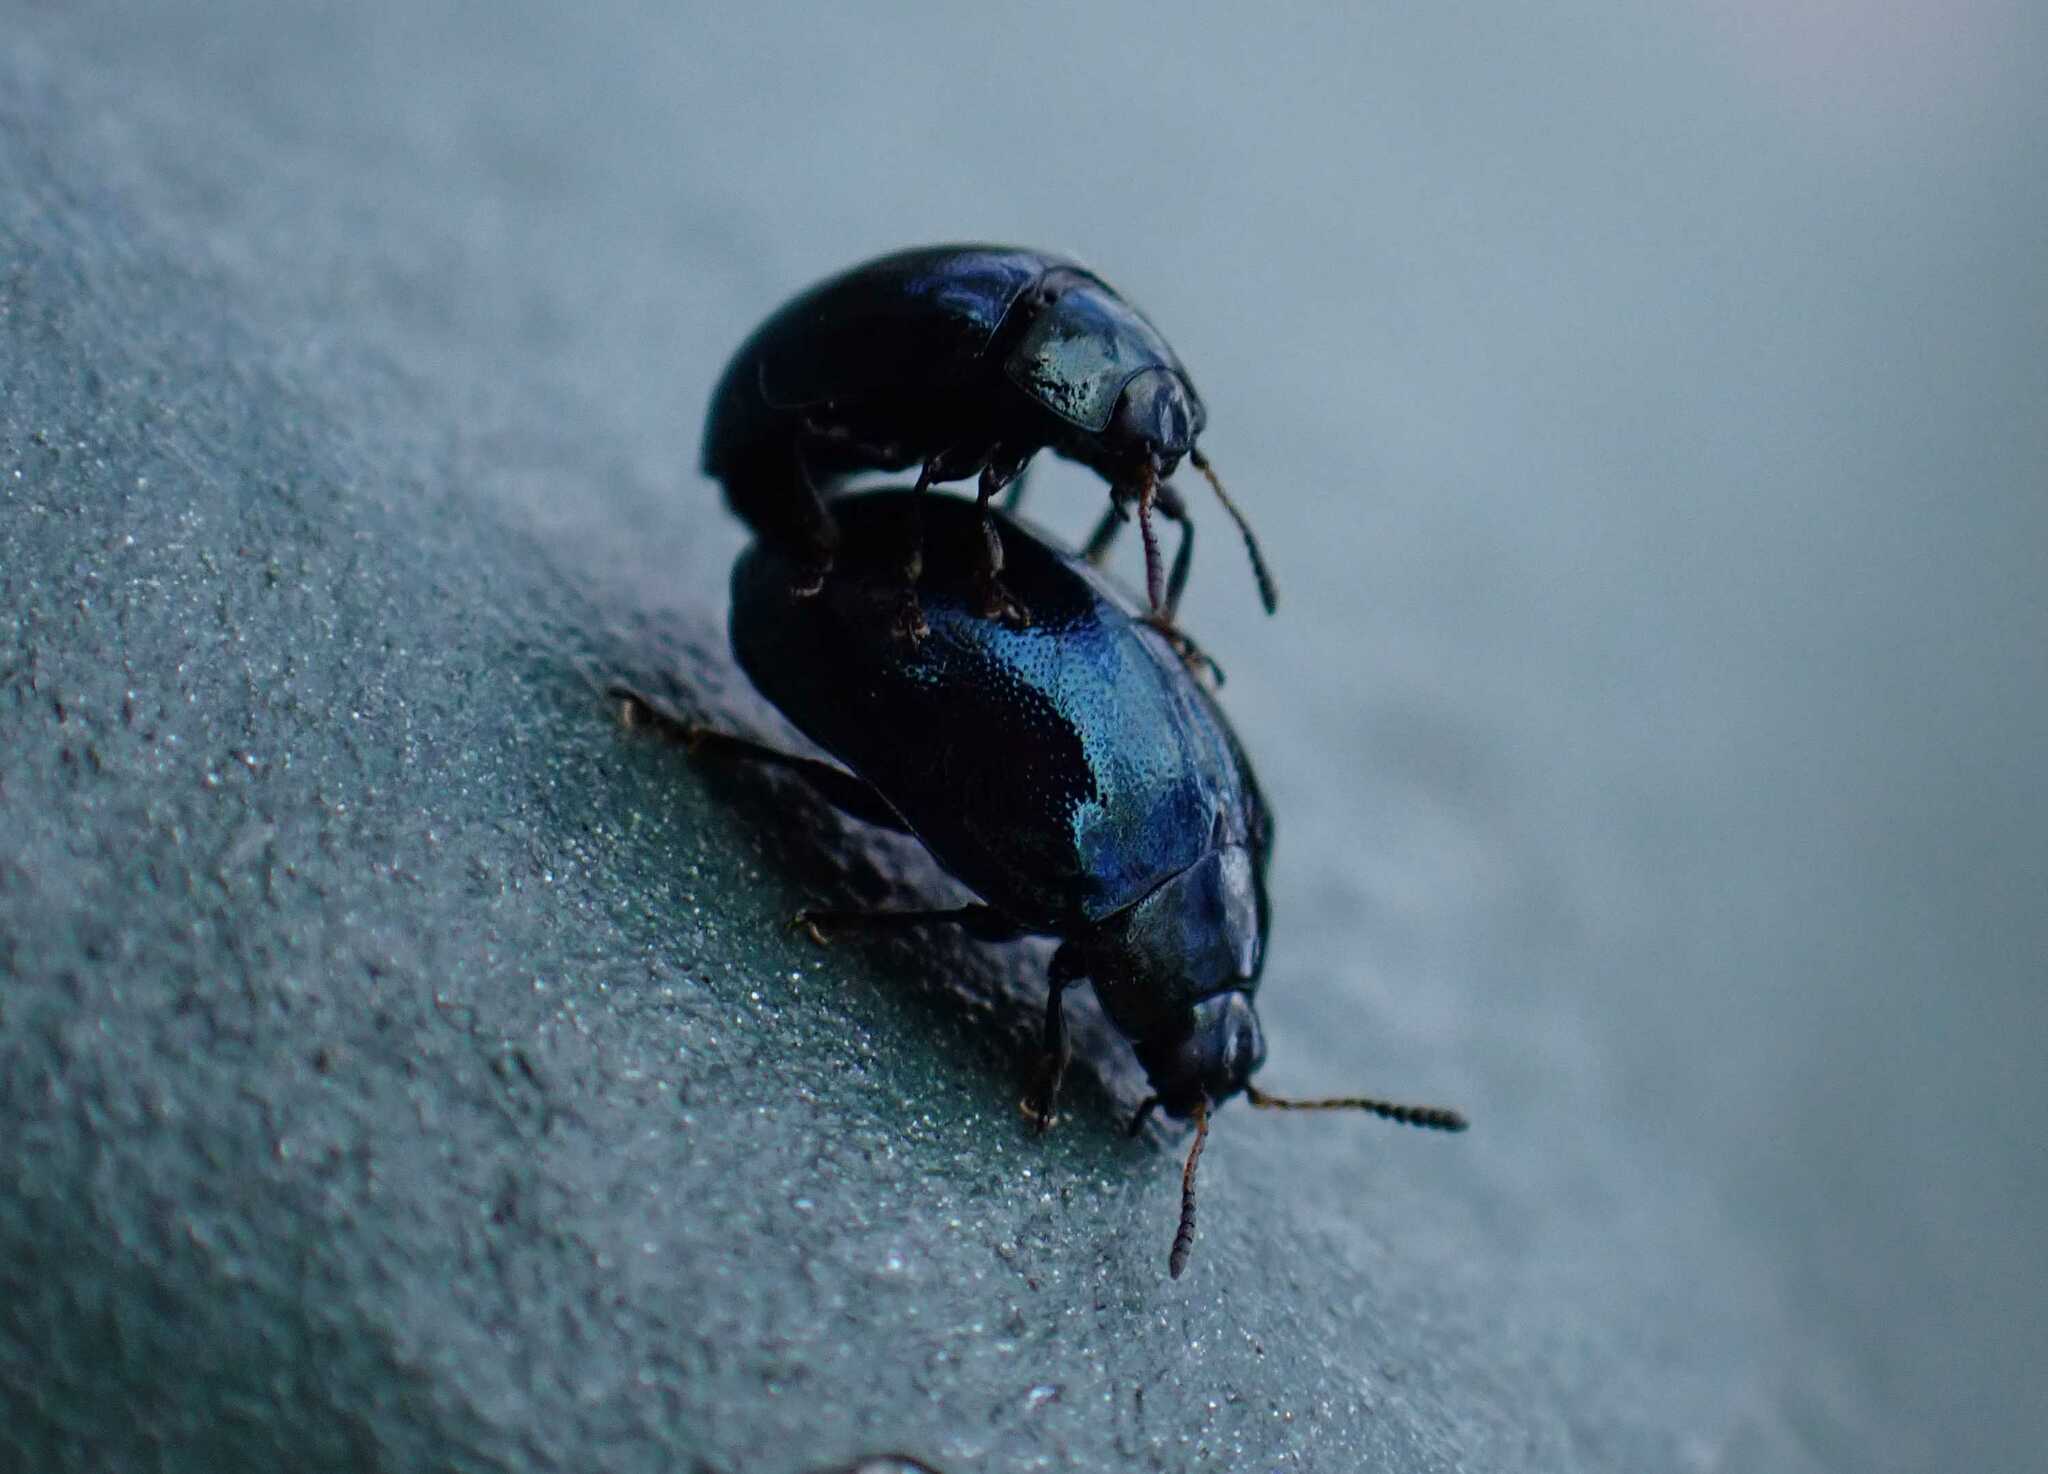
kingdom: Animalia
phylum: Arthropoda
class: Insecta
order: Coleoptera
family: Chrysomelidae
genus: Plagiodera
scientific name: Plagiodera versicolora
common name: Imported willow leaf beetle
